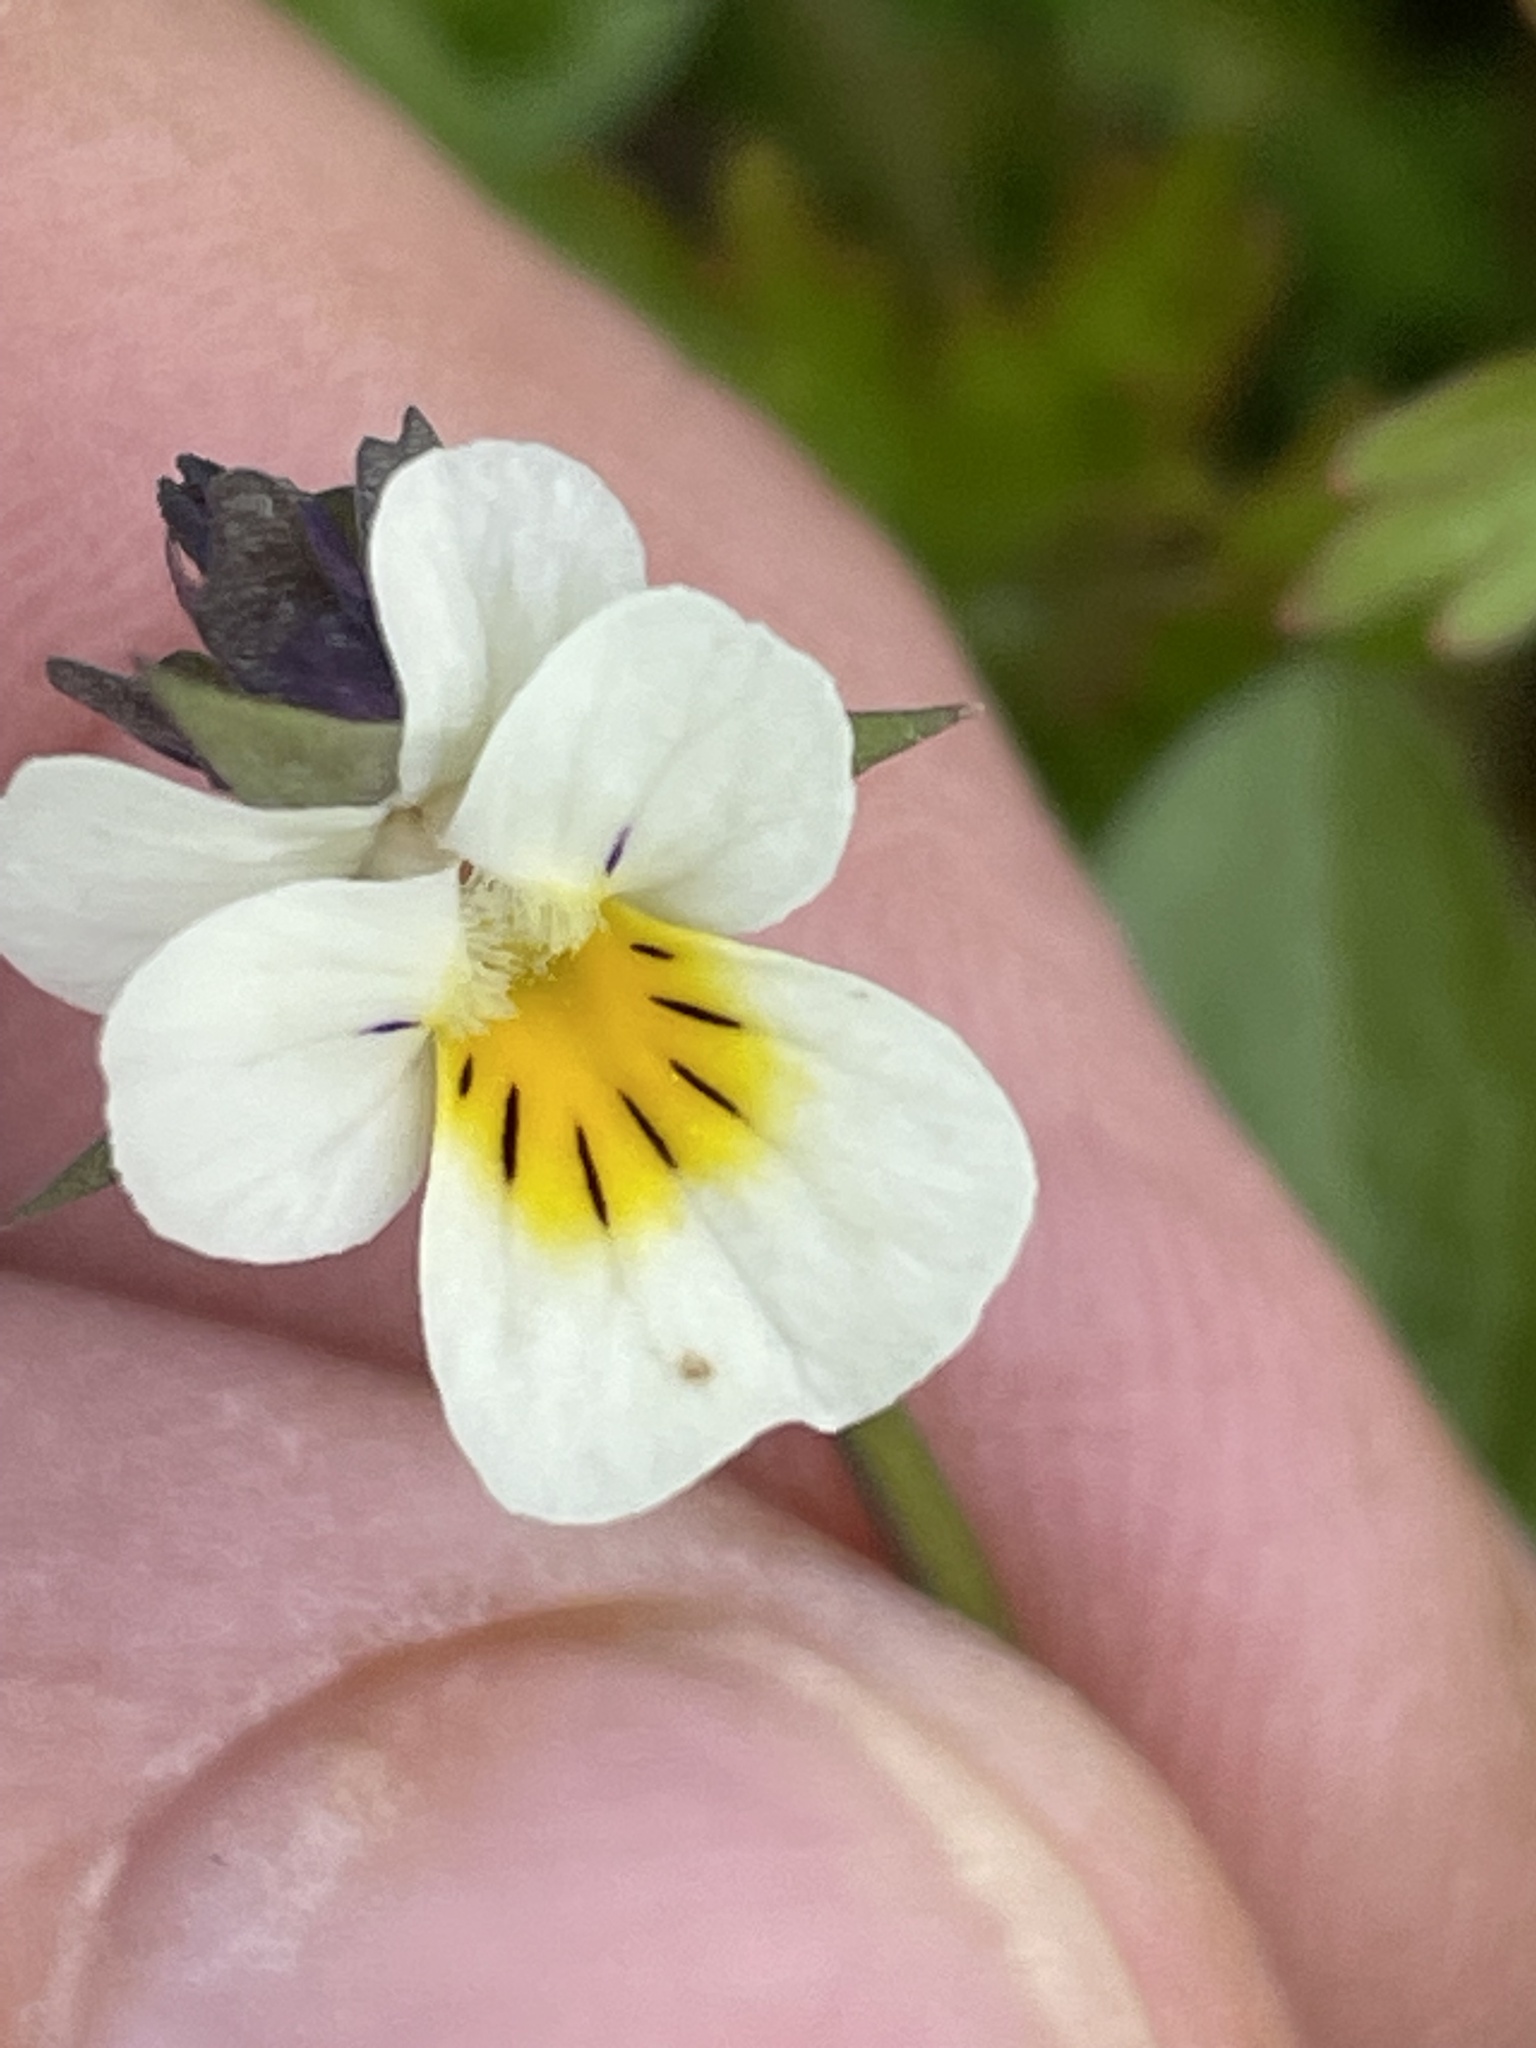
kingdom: Plantae
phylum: Tracheophyta
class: Magnoliopsida
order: Malpighiales
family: Violaceae
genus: Viola
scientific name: Viola arvensis
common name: Field pansy
